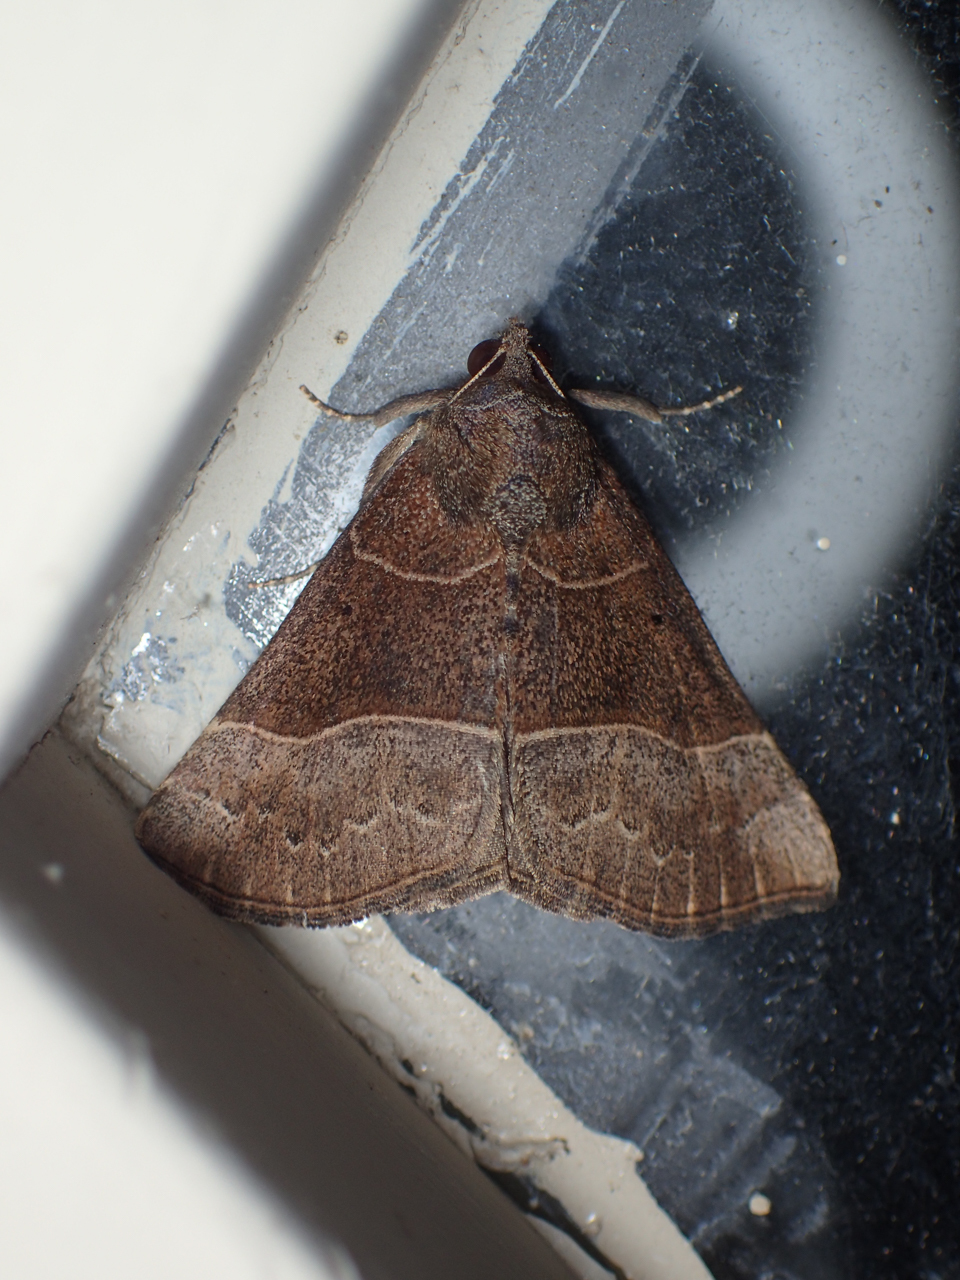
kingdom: Animalia
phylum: Arthropoda
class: Insecta
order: Lepidoptera
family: Erebidae
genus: Hypena
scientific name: Hypena deceptalis
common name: Deceptive snout
